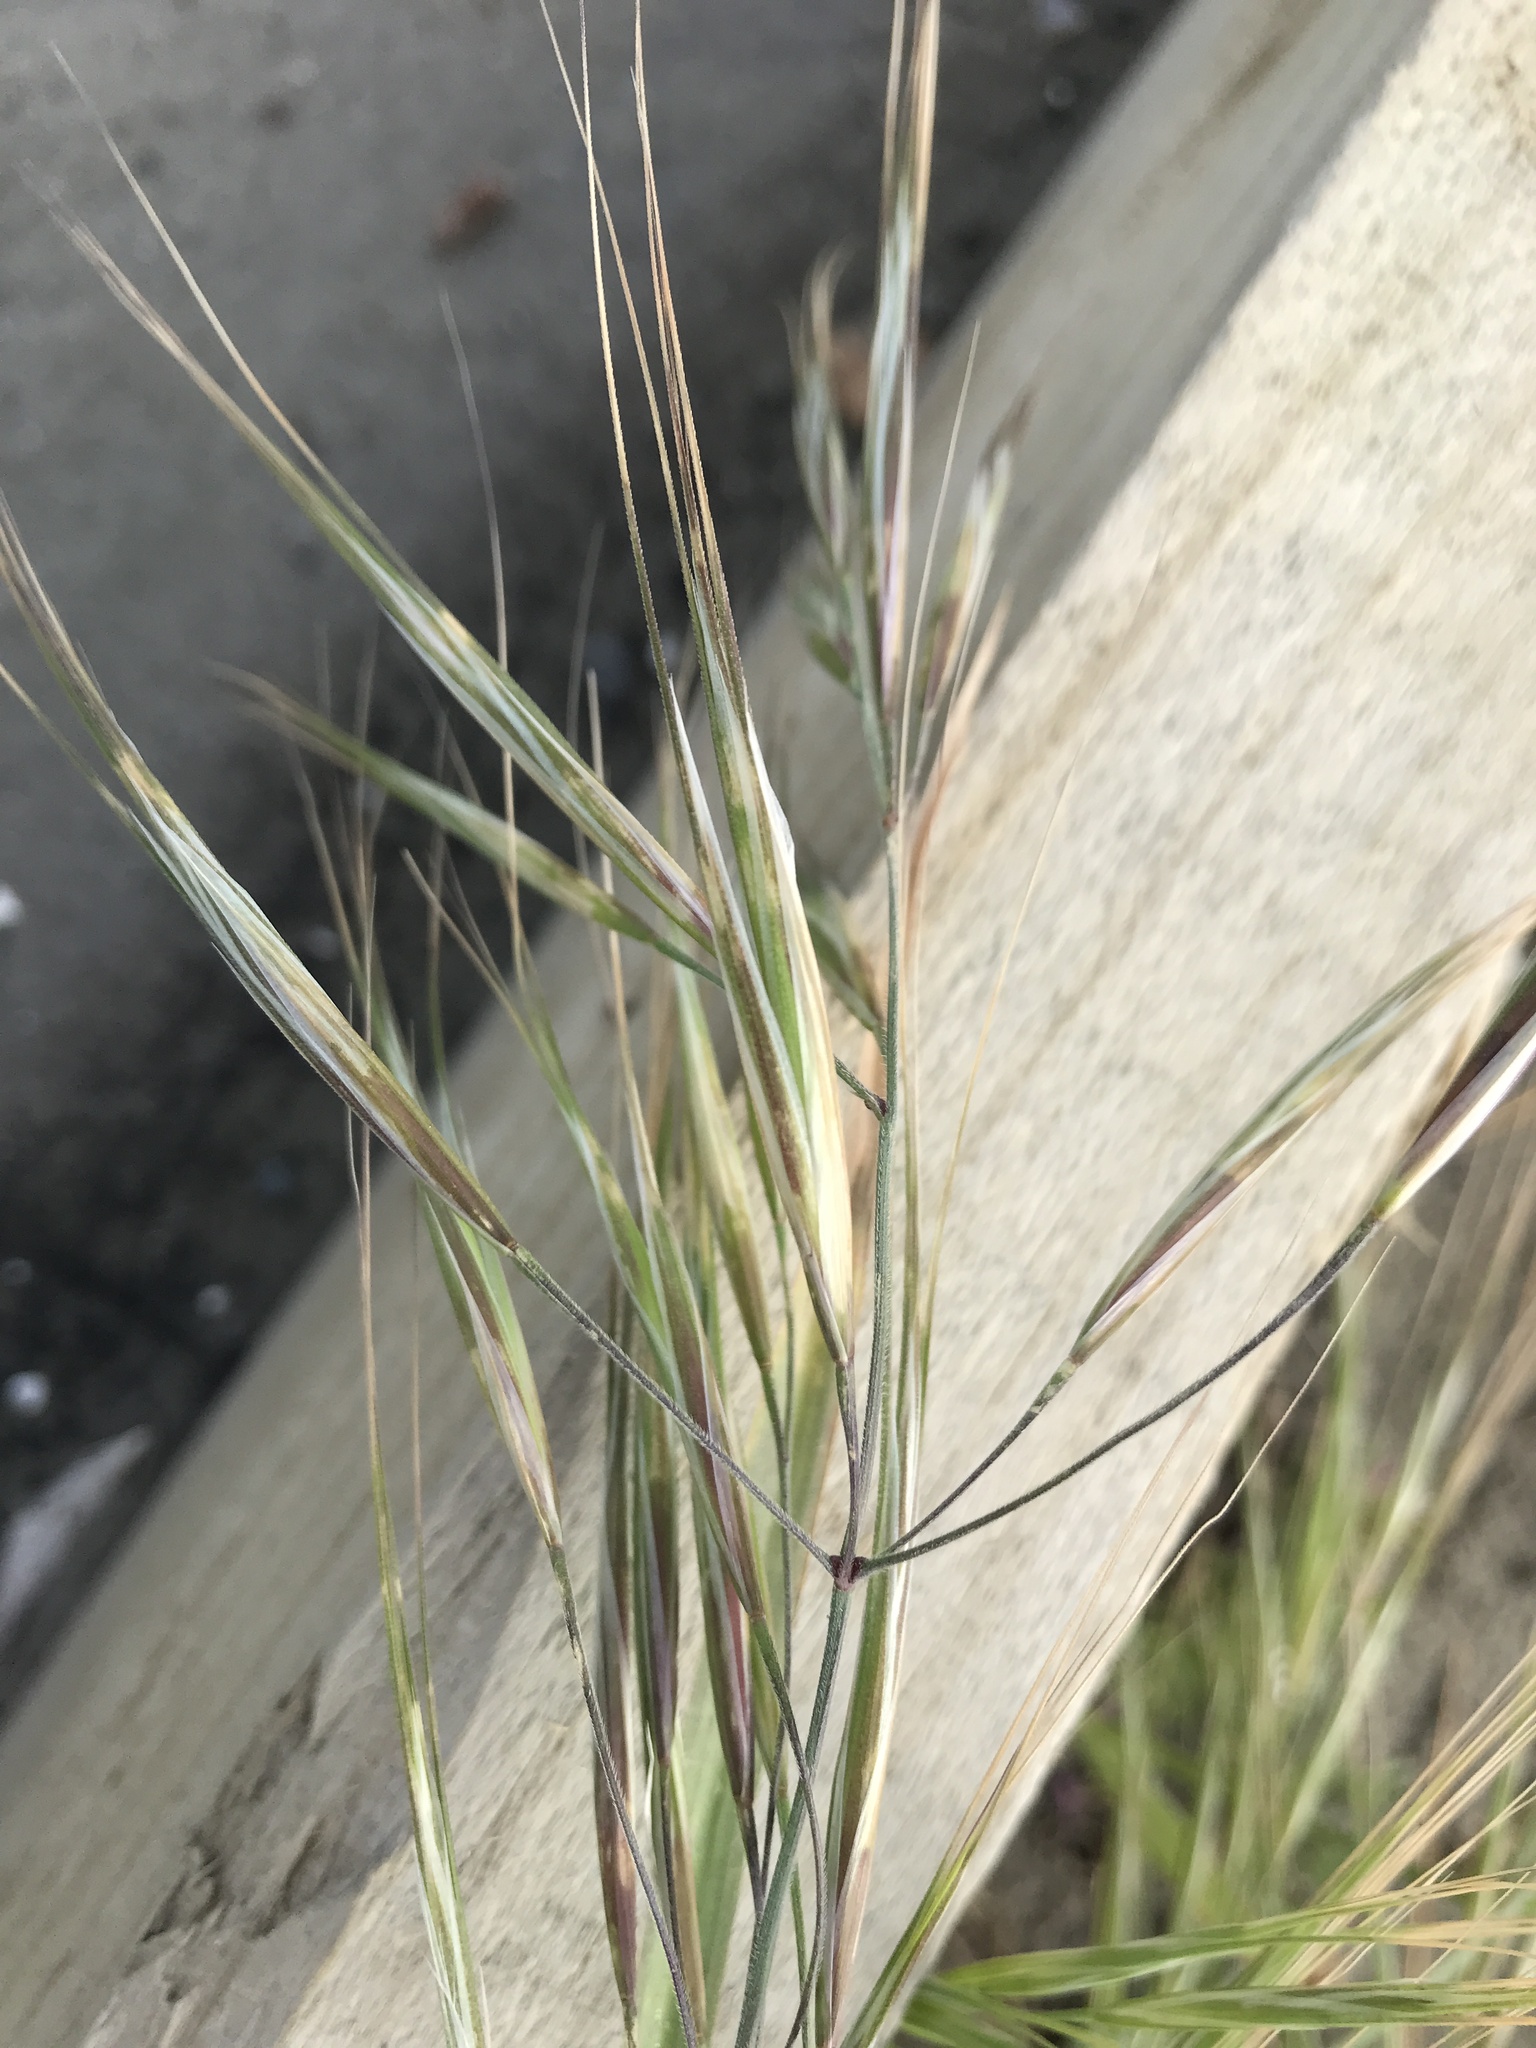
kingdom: Plantae
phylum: Tracheophyta
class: Liliopsida
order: Poales
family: Poaceae
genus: Bromus
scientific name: Bromus diandrus
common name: Ripgut brome
